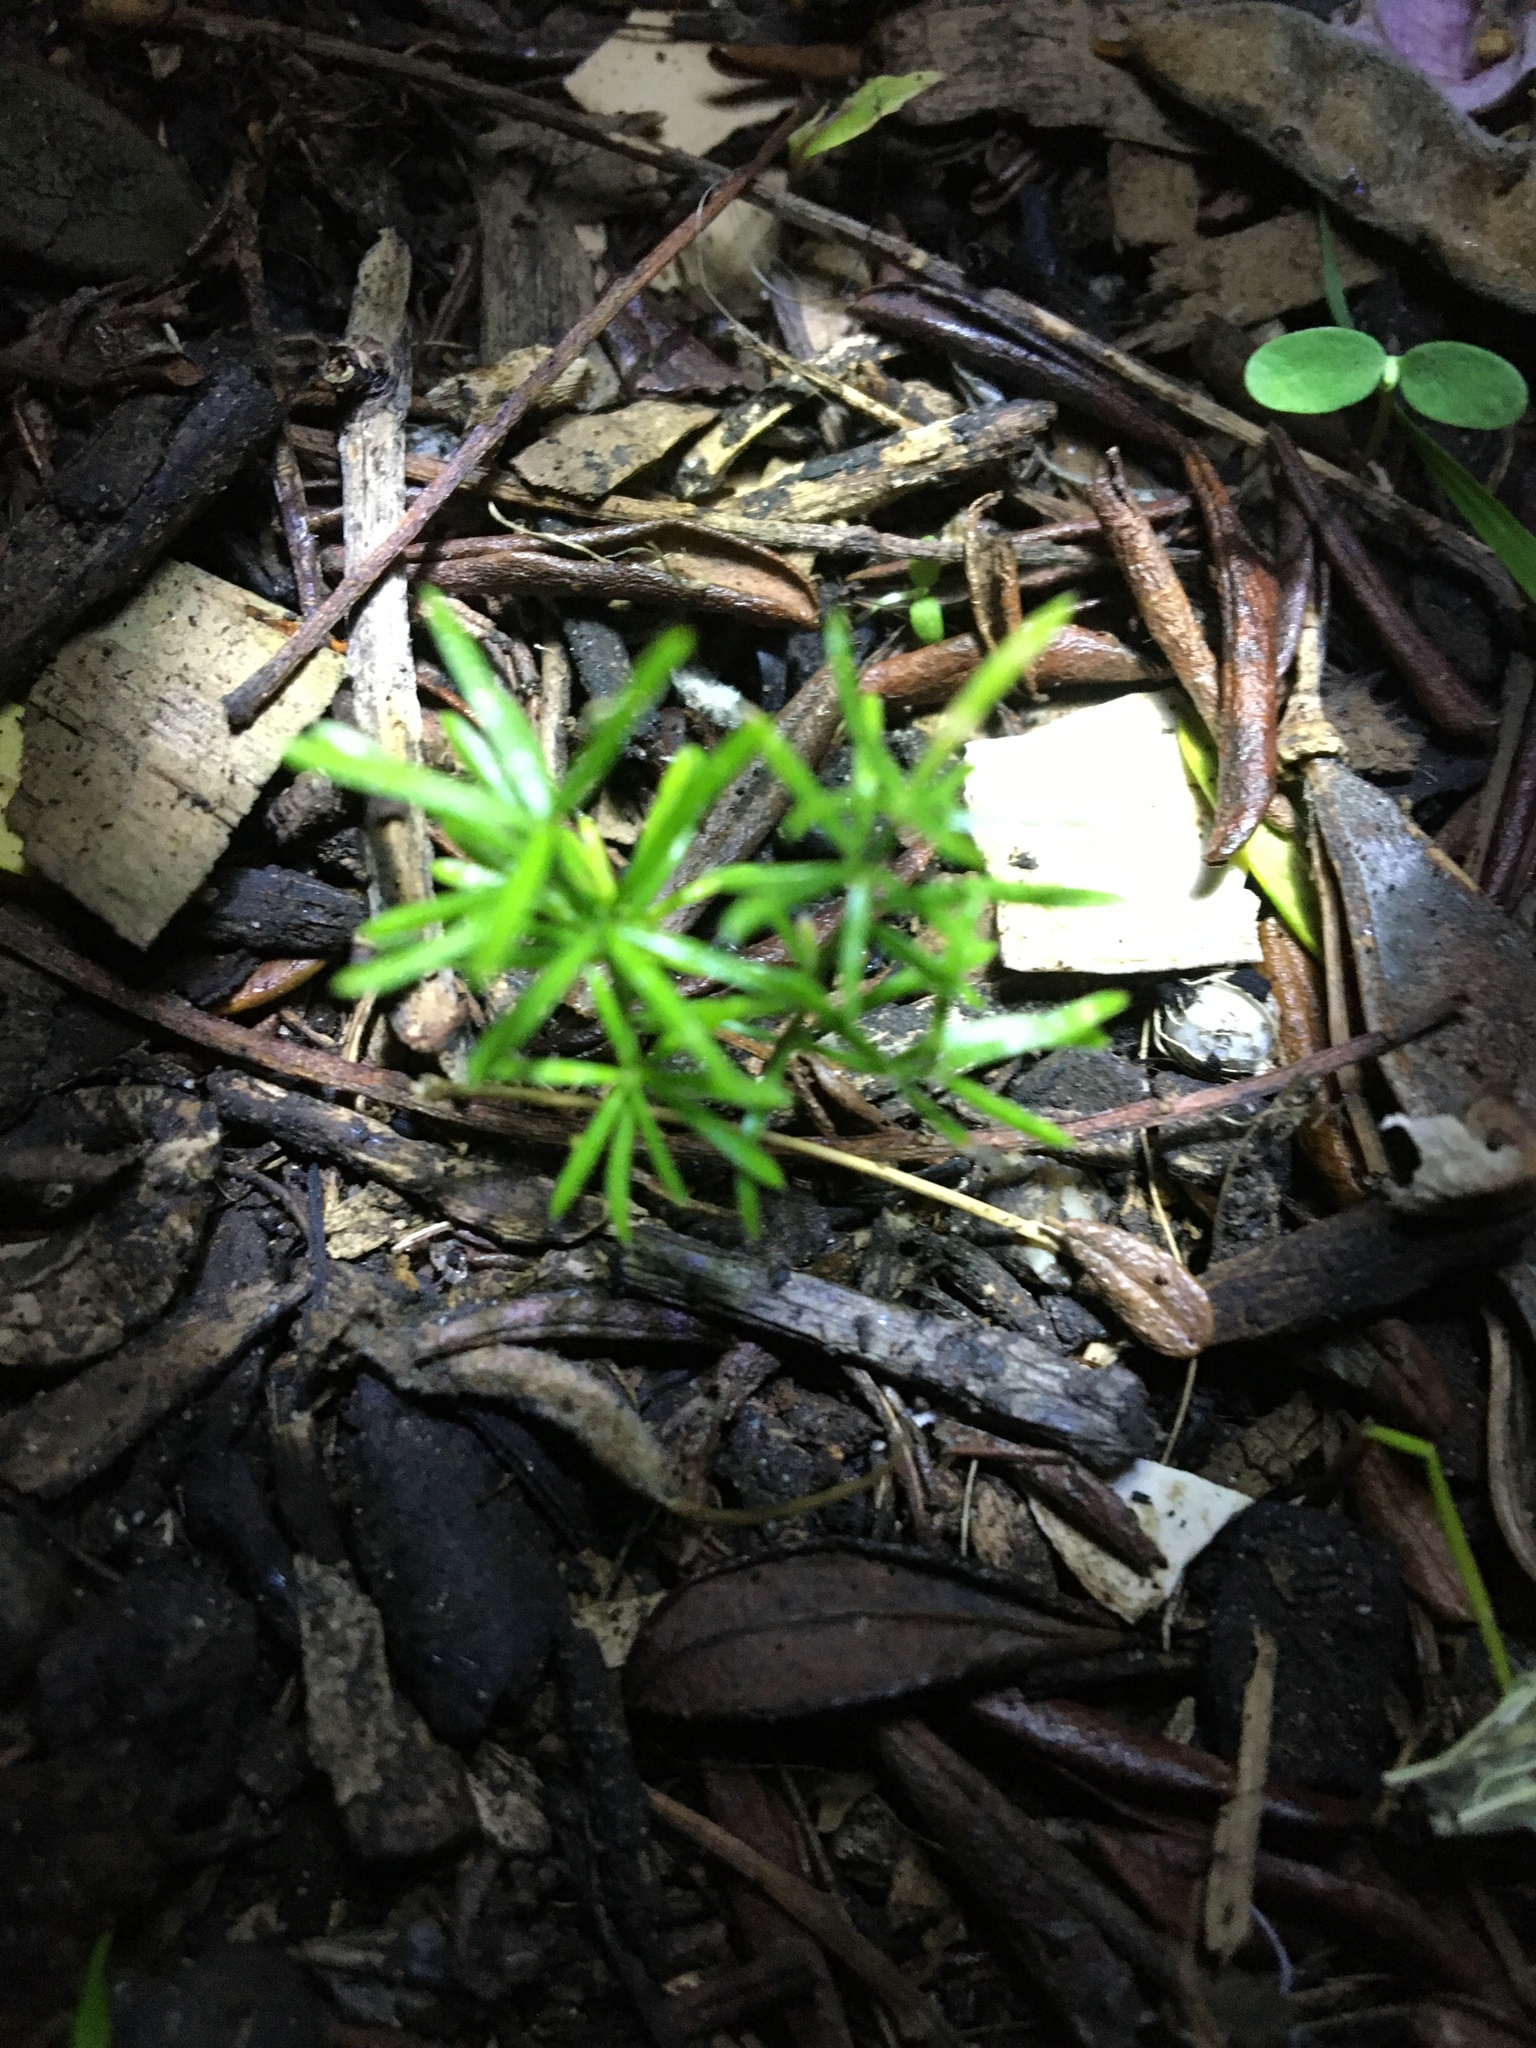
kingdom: Plantae
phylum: Tracheophyta
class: Liliopsida
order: Asparagales
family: Asparagaceae
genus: Asparagus
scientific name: Asparagus aethiopicus
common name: Sprenger's asparagus fern
